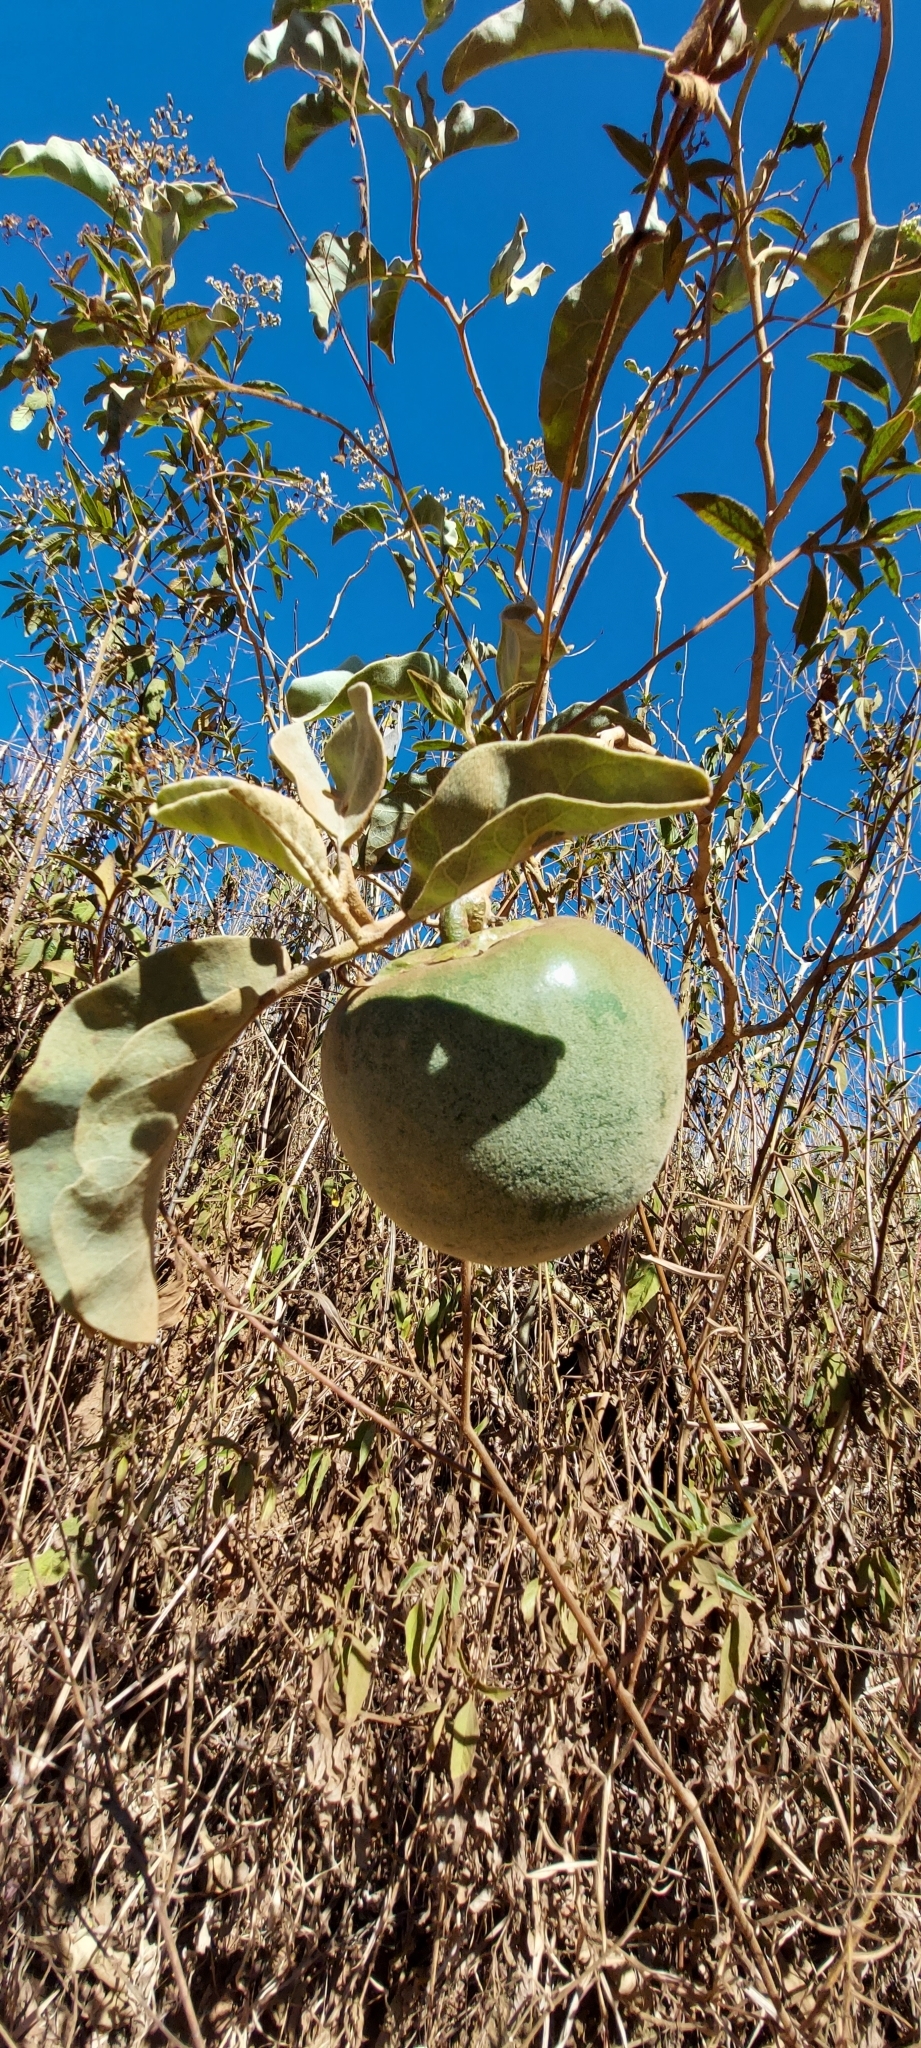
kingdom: Plantae
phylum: Tracheophyta
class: Magnoliopsida
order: Solanales
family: Solanaceae
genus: Solanum
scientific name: Solanum lycocarpum
